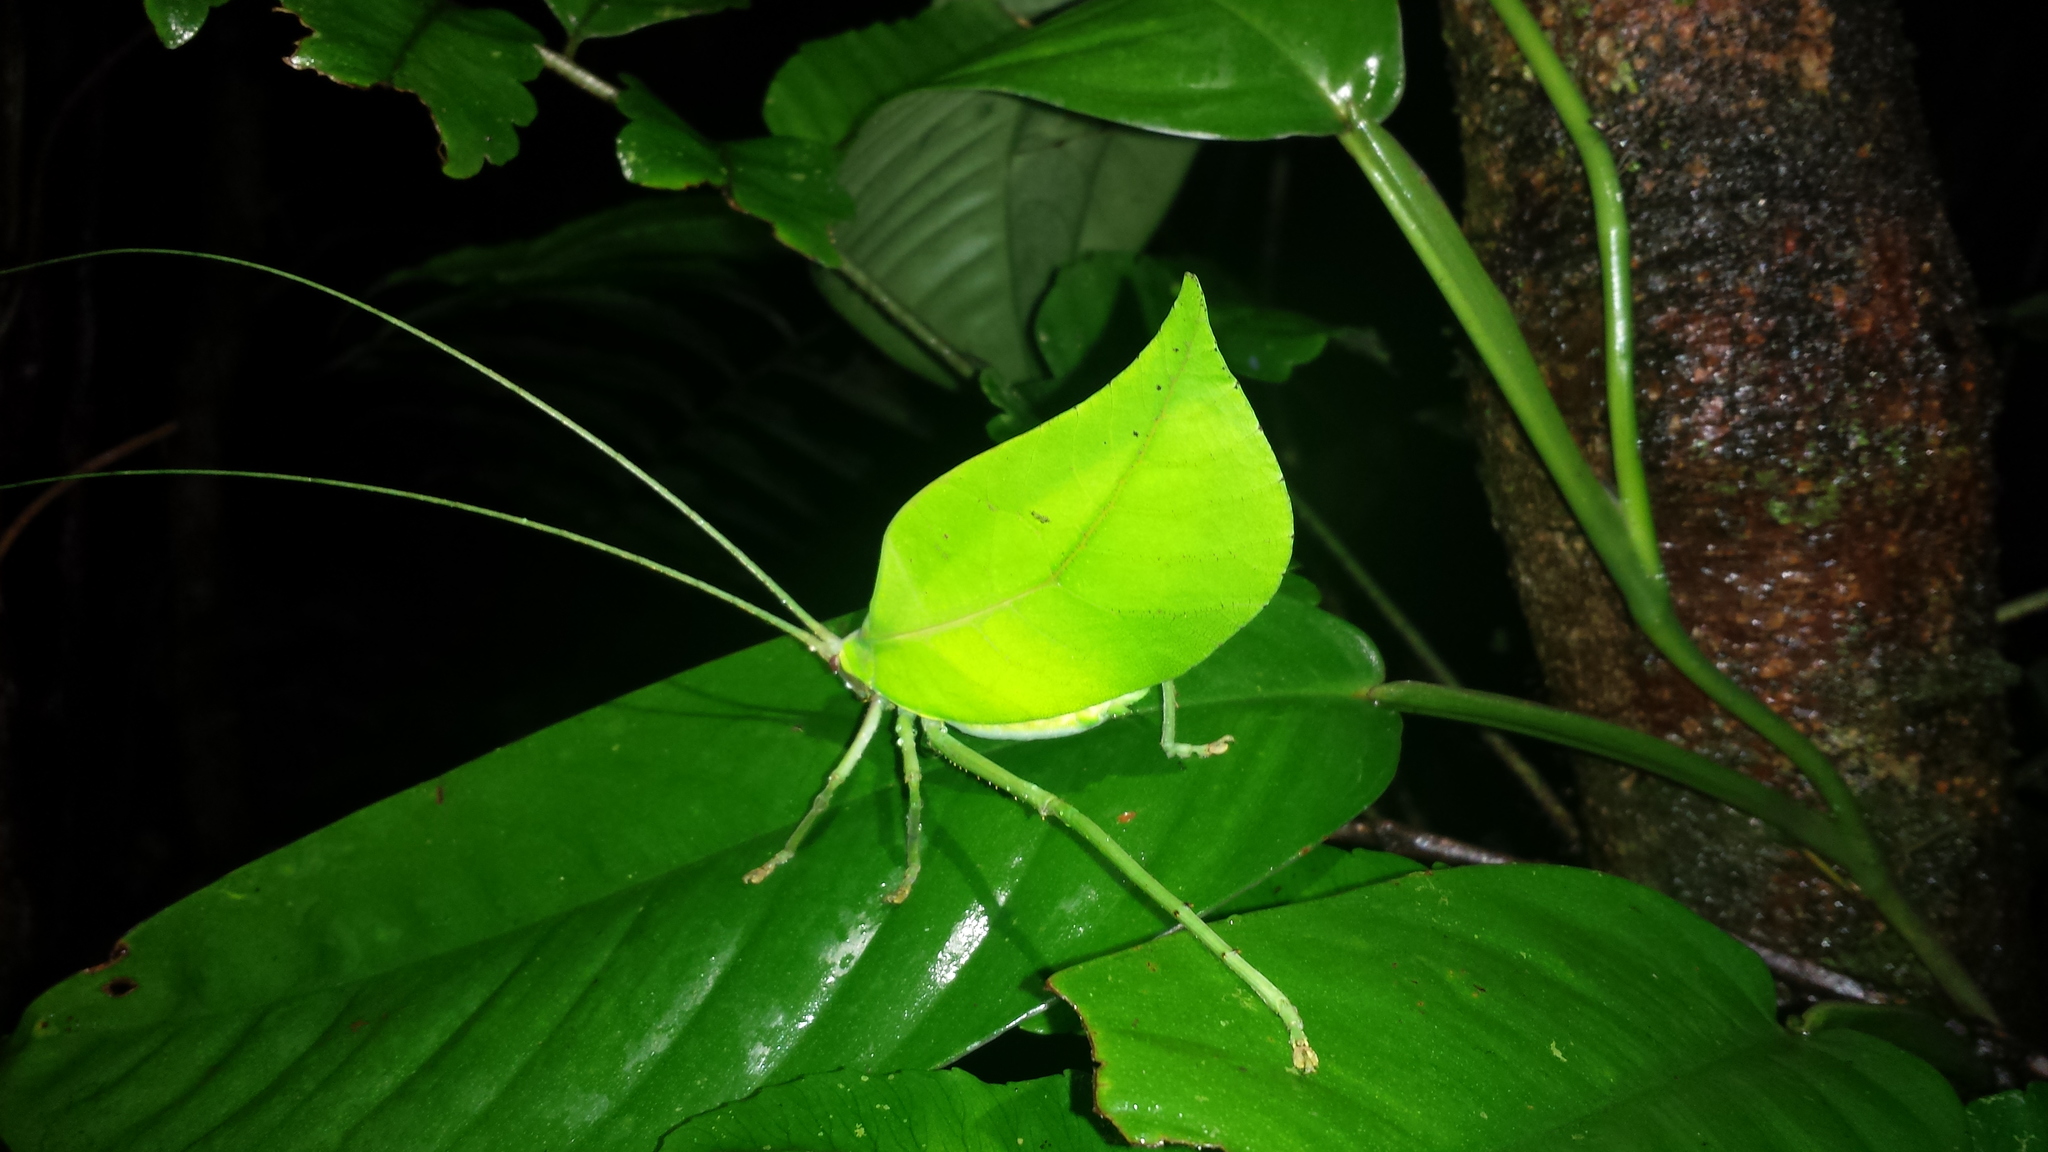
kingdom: Animalia
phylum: Arthropoda
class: Insecta
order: Orthoptera
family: Tettigoniidae
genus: Cycloptera
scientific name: Cycloptera arcuata
